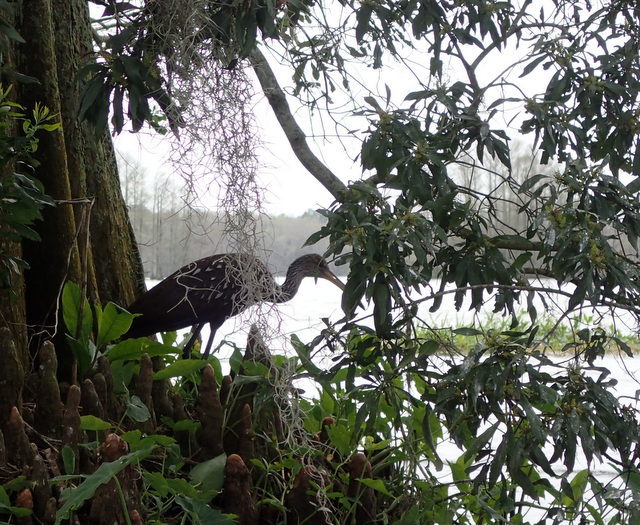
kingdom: Animalia
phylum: Chordata
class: Aves
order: Gruiformes
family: Aramidae
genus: Aramus
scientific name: Aramus guarauna
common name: Limpkin
